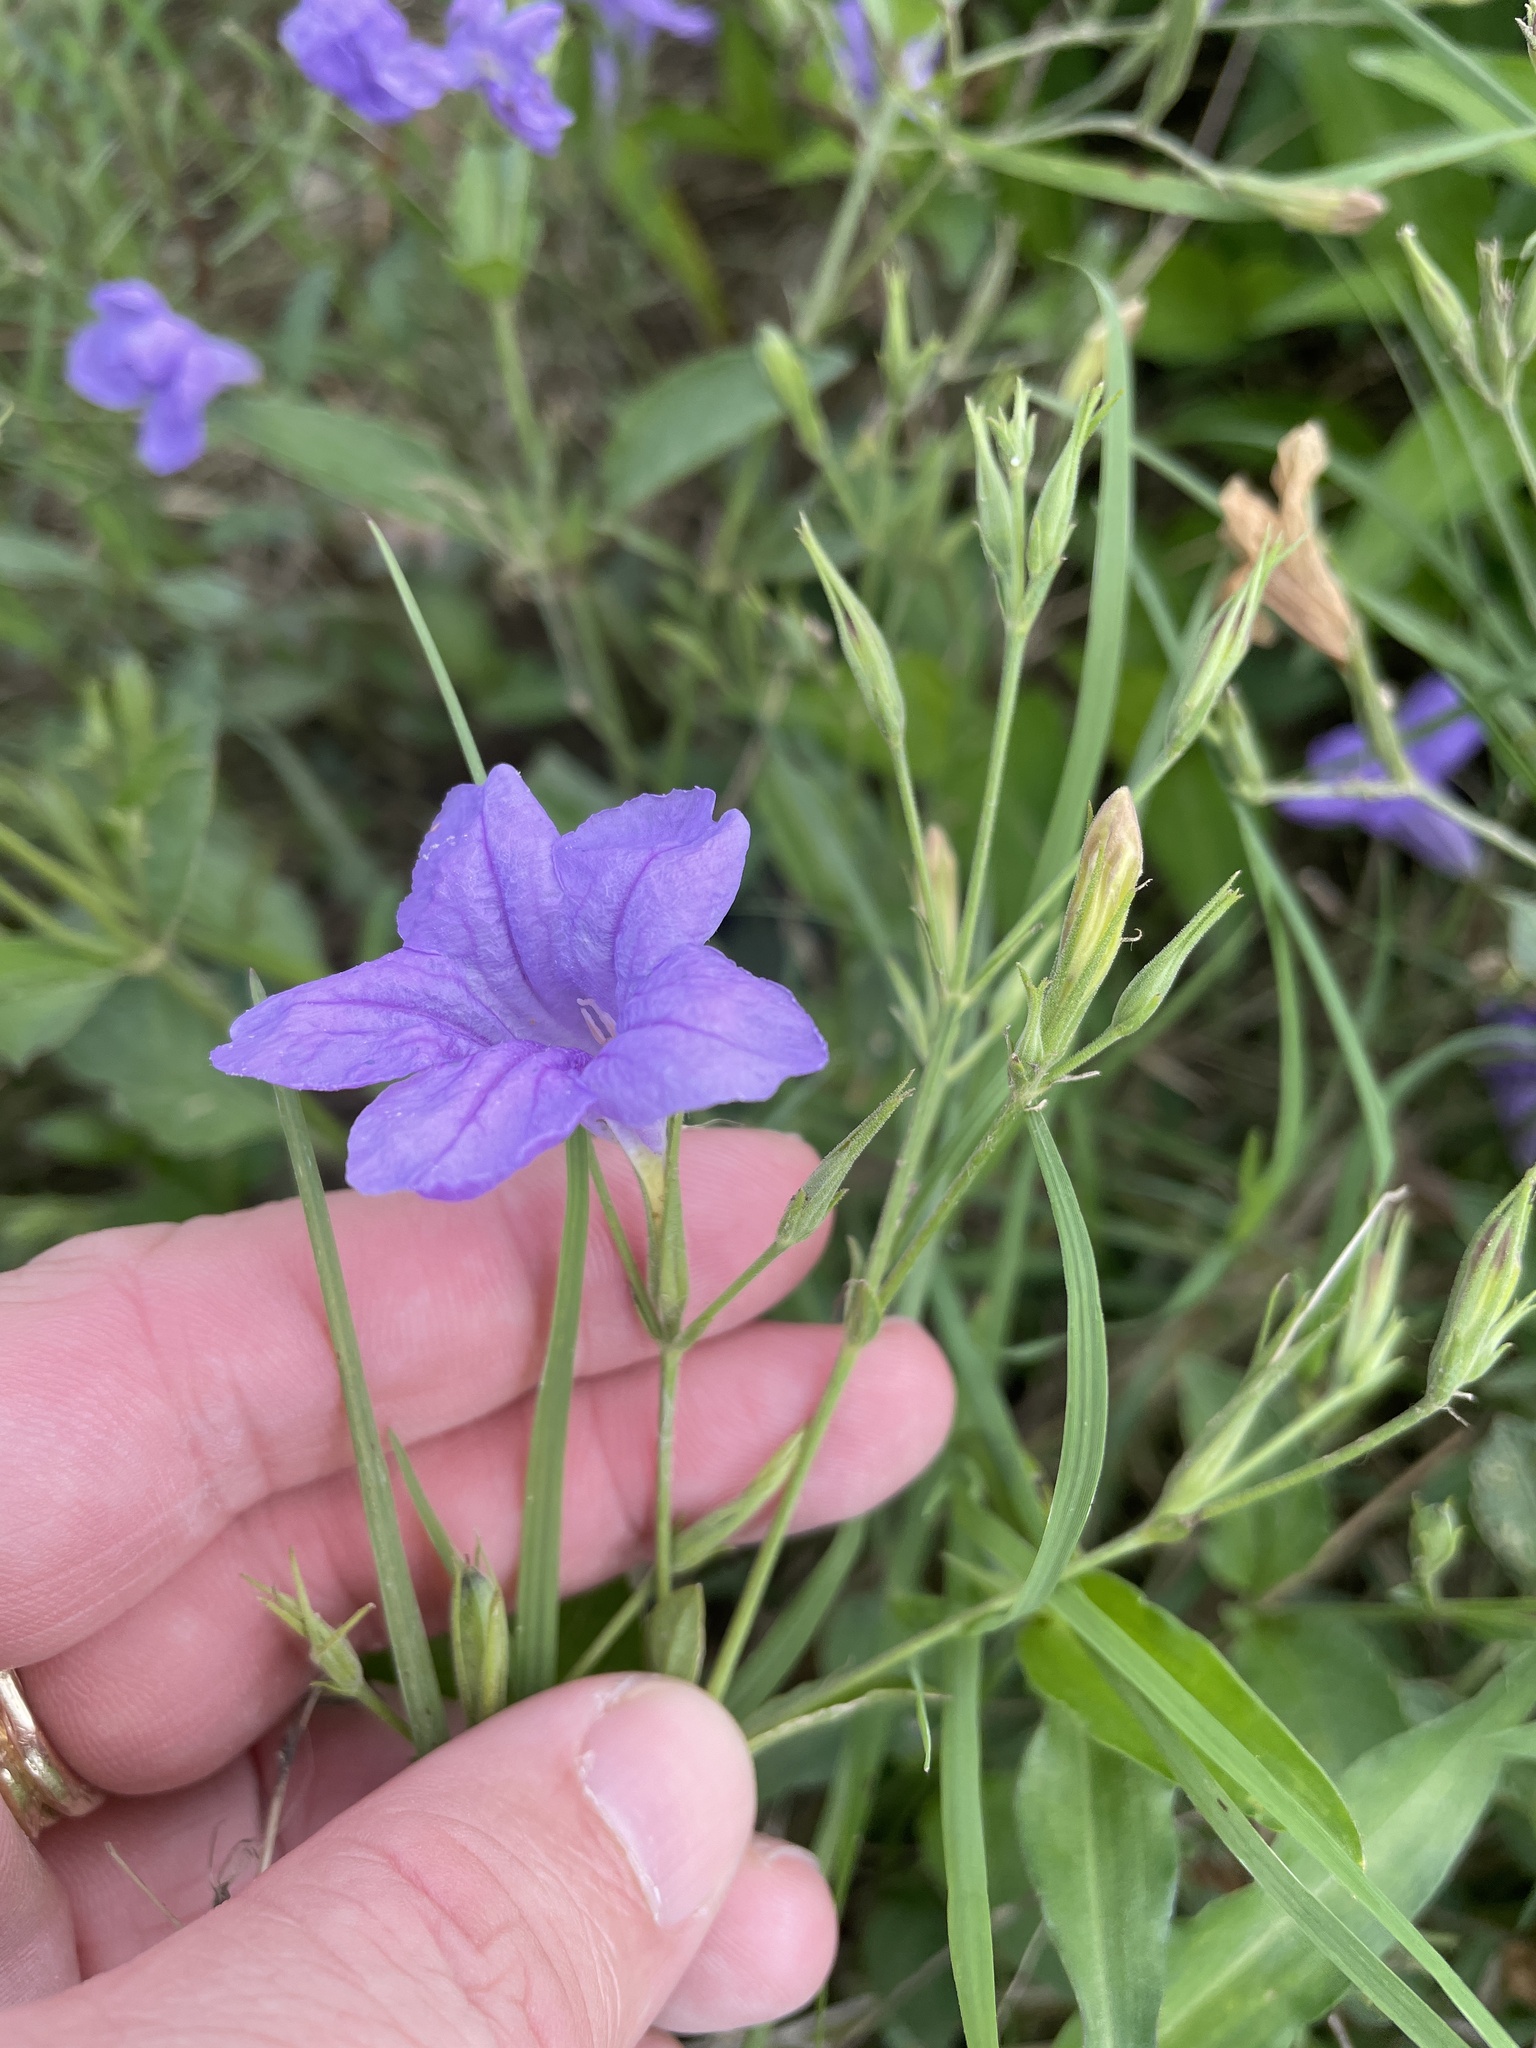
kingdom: Plantae
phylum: Tracheophyta
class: Magnoliopsida
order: Lamiales
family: Acanthaceae
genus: Ruellia
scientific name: Ruellia ciliatiflora
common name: Hairyflower wild petunia
